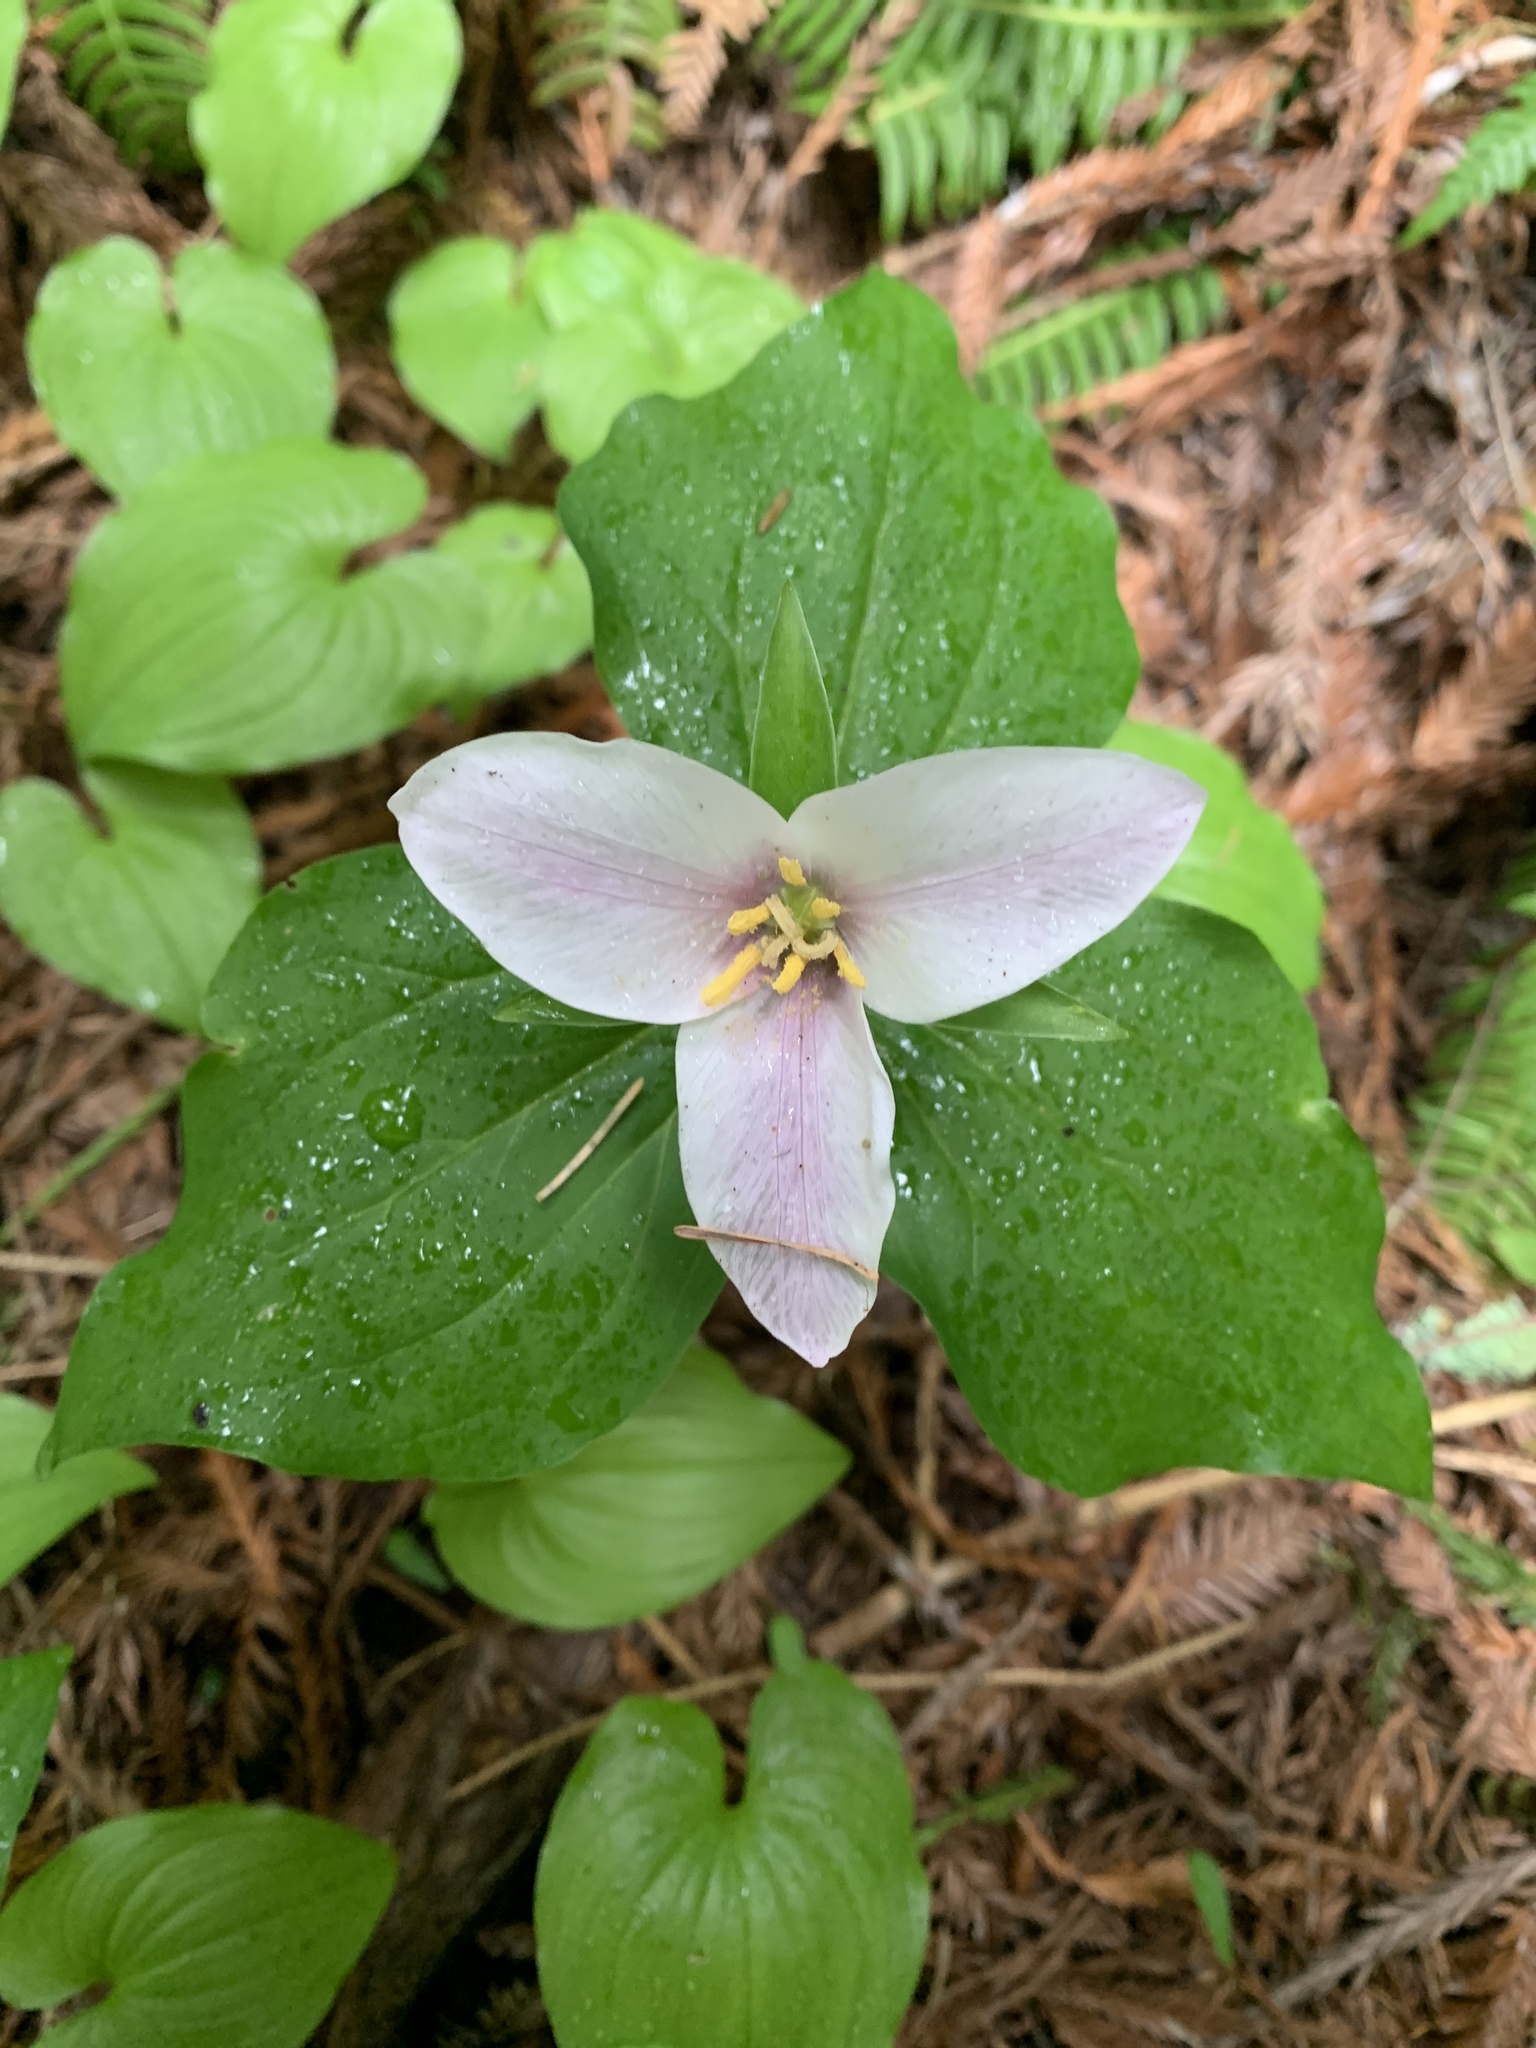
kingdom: Plantae
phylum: Tracheophyta
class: Liliopsida
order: Liliales
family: Melanthiaceae
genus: Trillium
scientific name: Trillium ovatum
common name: Pacific trillium
